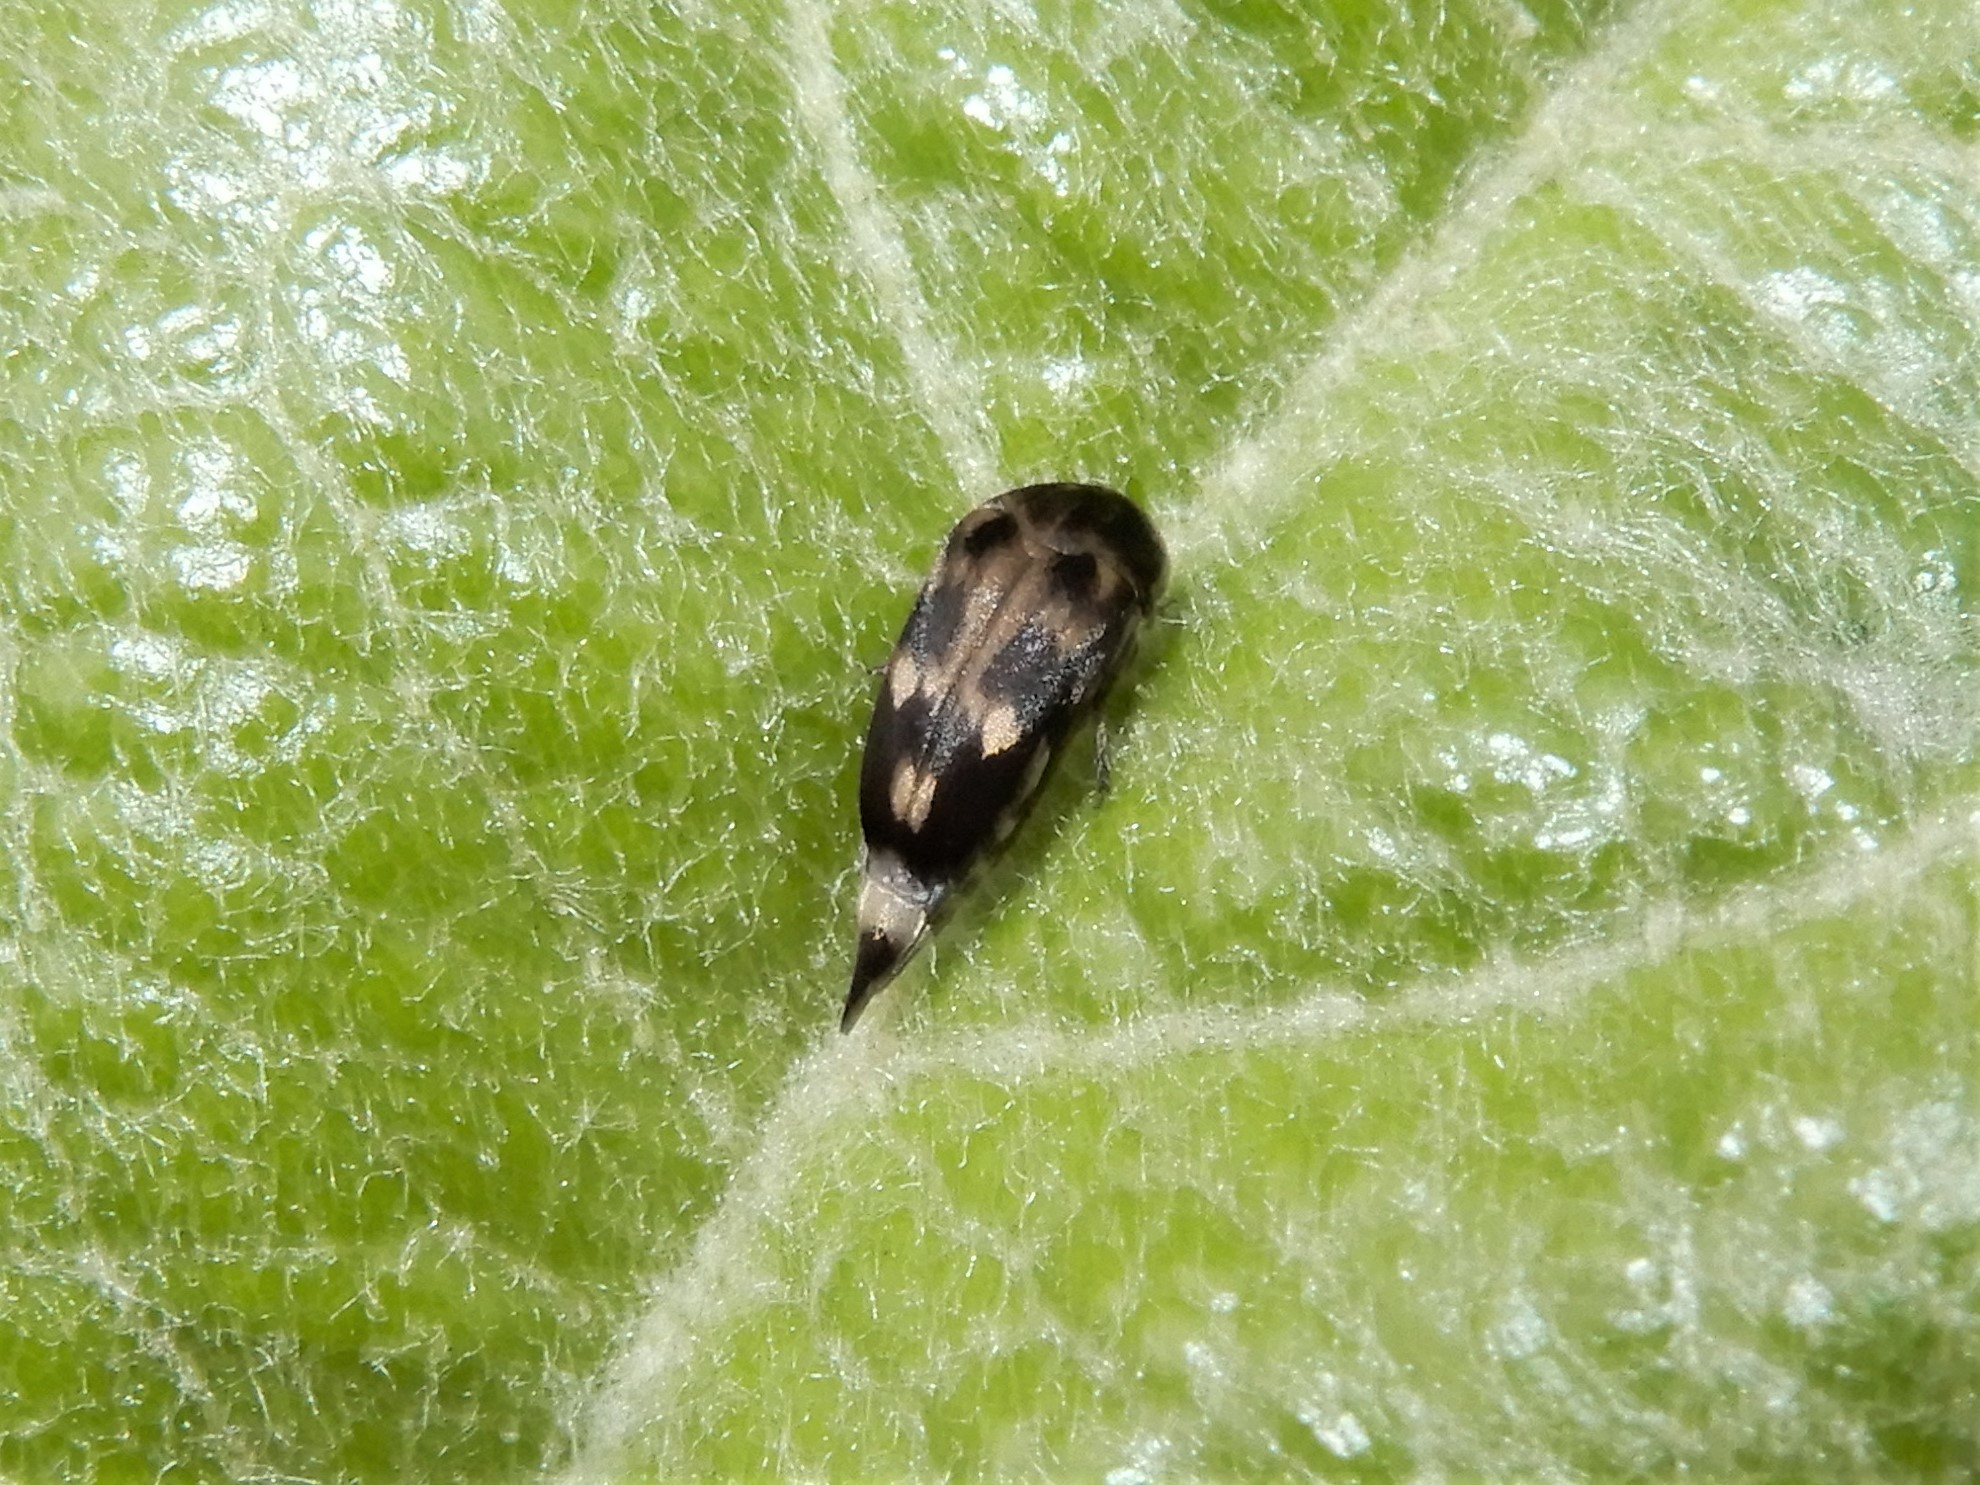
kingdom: Animalia
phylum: Arthropoda
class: Insecta
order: Coleoptera
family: Mordellidae
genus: Zeamordella
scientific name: Zeamordella monacha
